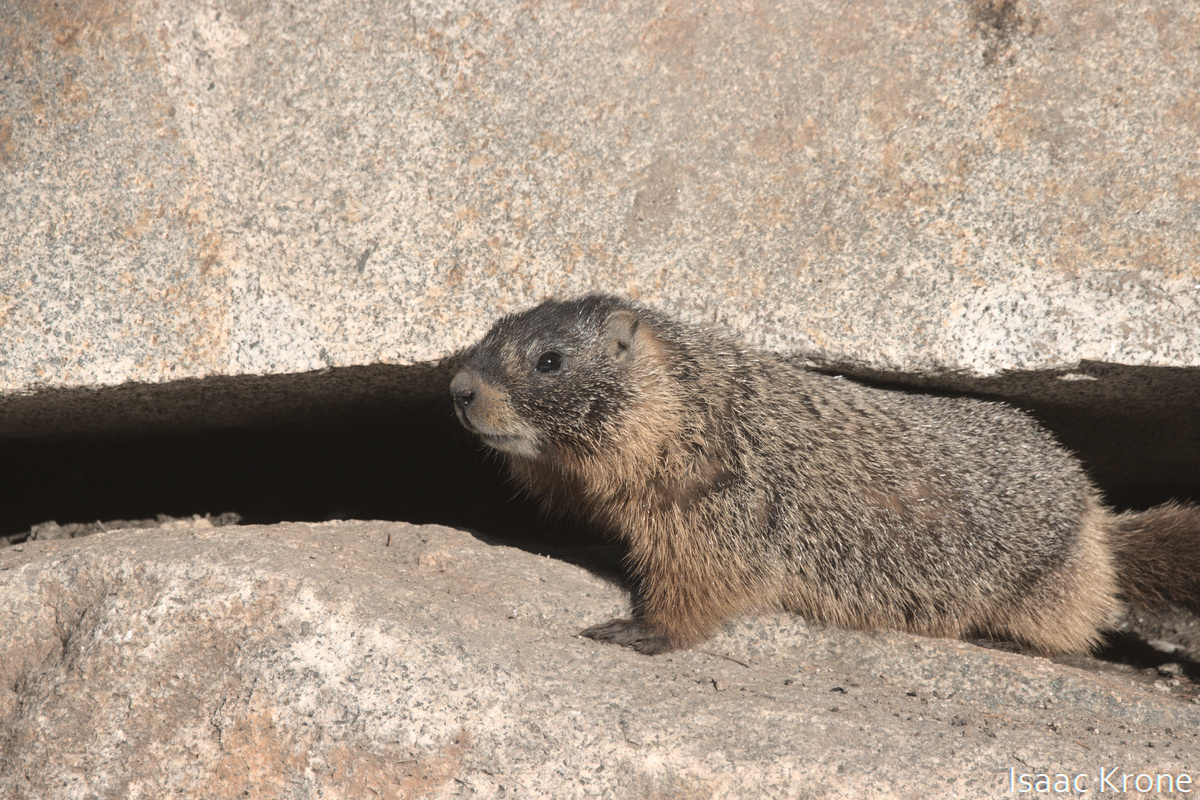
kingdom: Animalia
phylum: Chordata
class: Mammalia
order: Rodentia
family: Sciuridae
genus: Marmota
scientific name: Marmota flaviventris
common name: Yellow-bellied marmot
